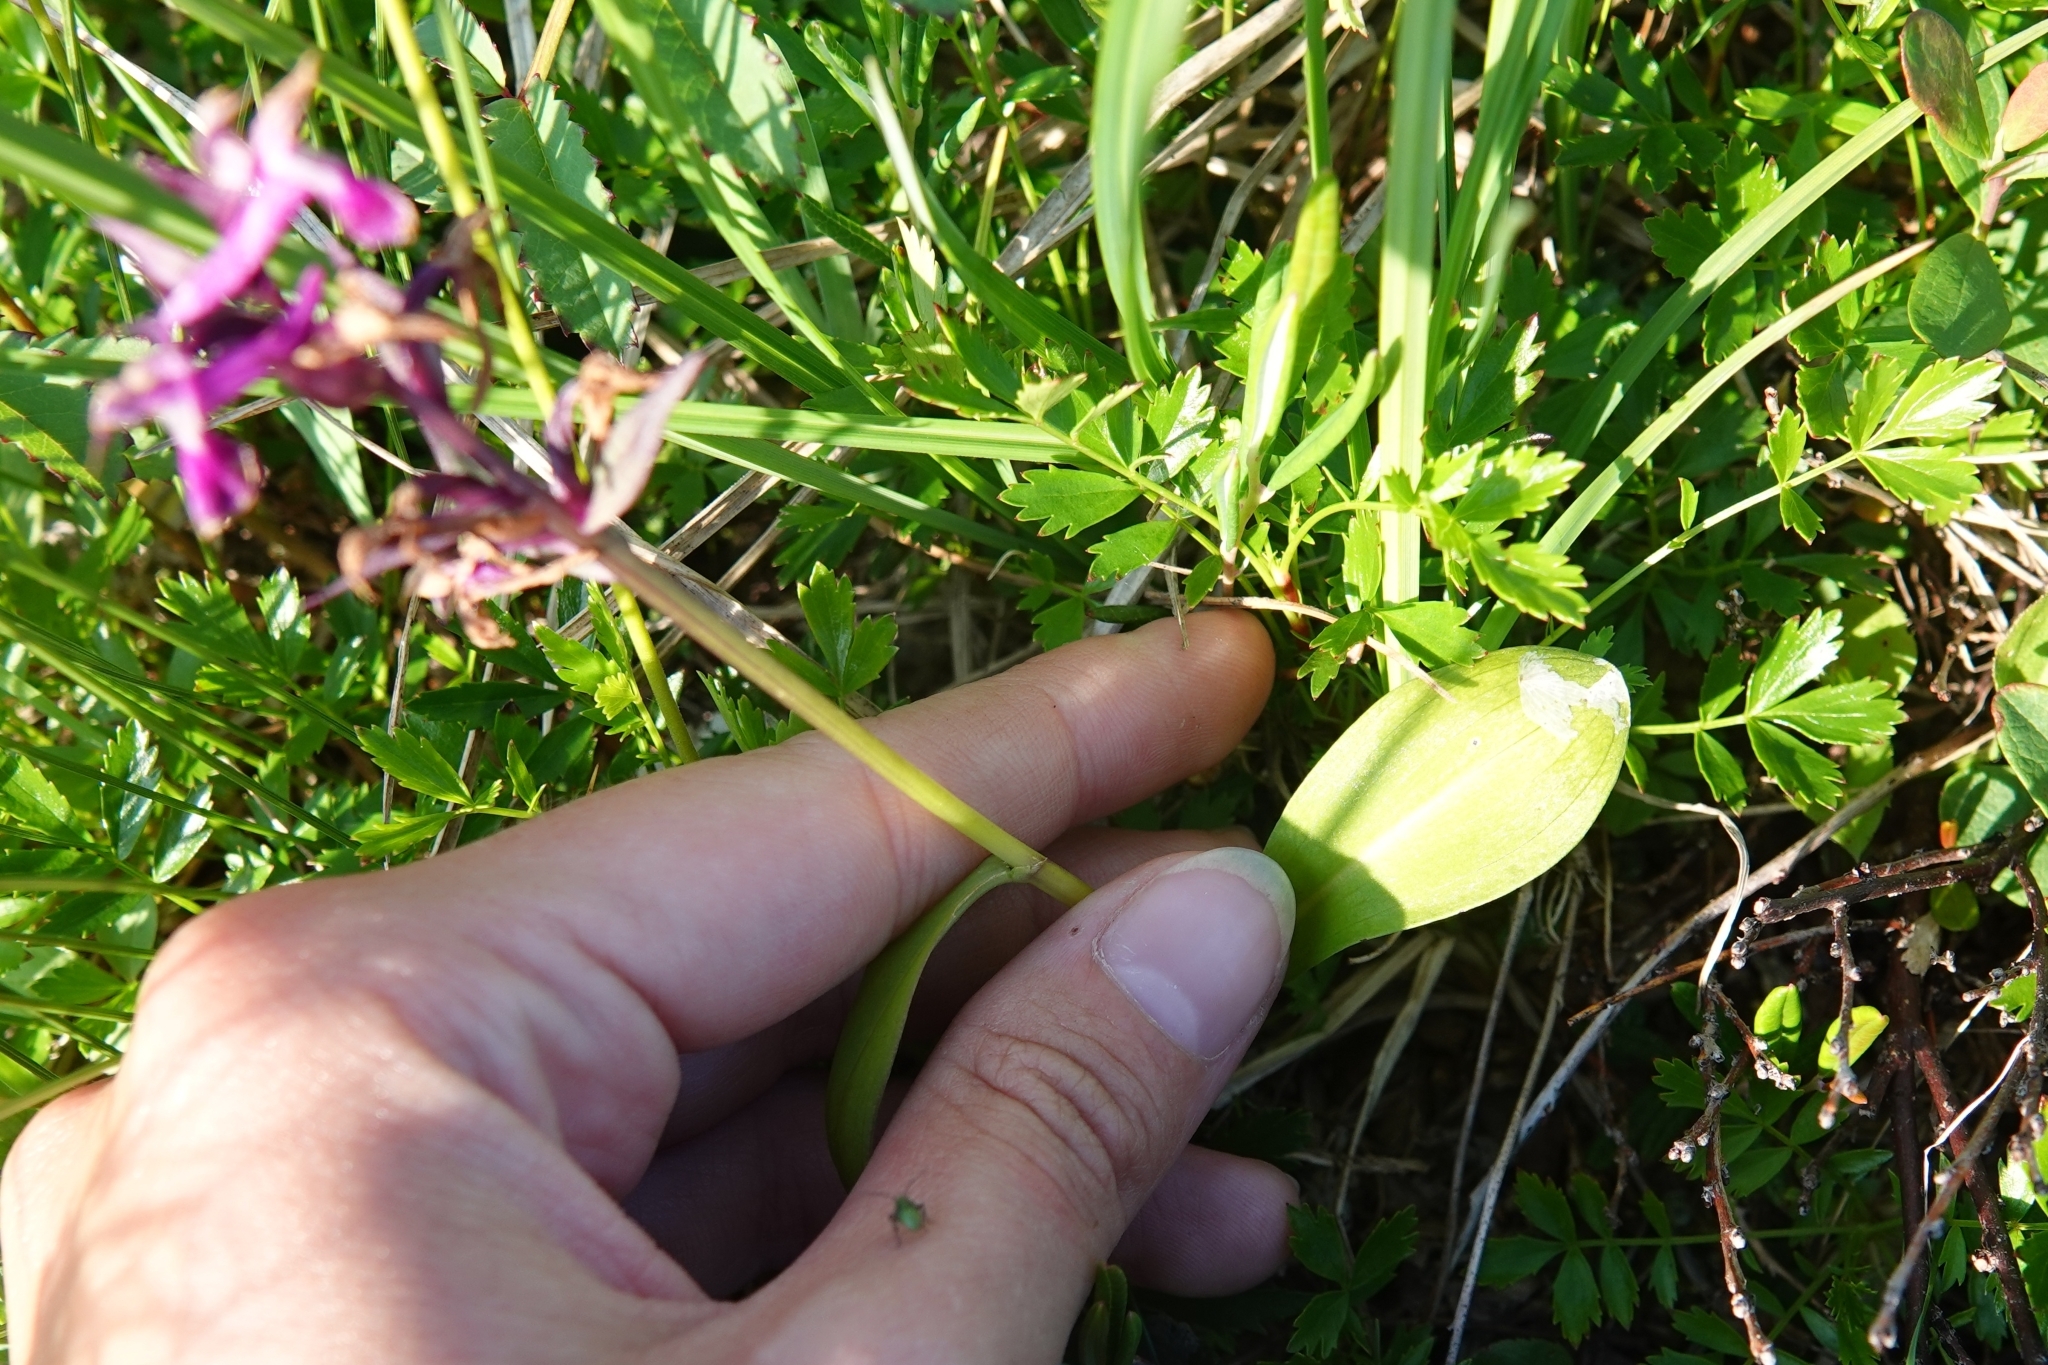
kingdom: Plantae
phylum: Tracheophyta
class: Liliopsida
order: Asparagales
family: Orchidaceae
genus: Dactylorhiza
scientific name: Dactylorhiza aristata
